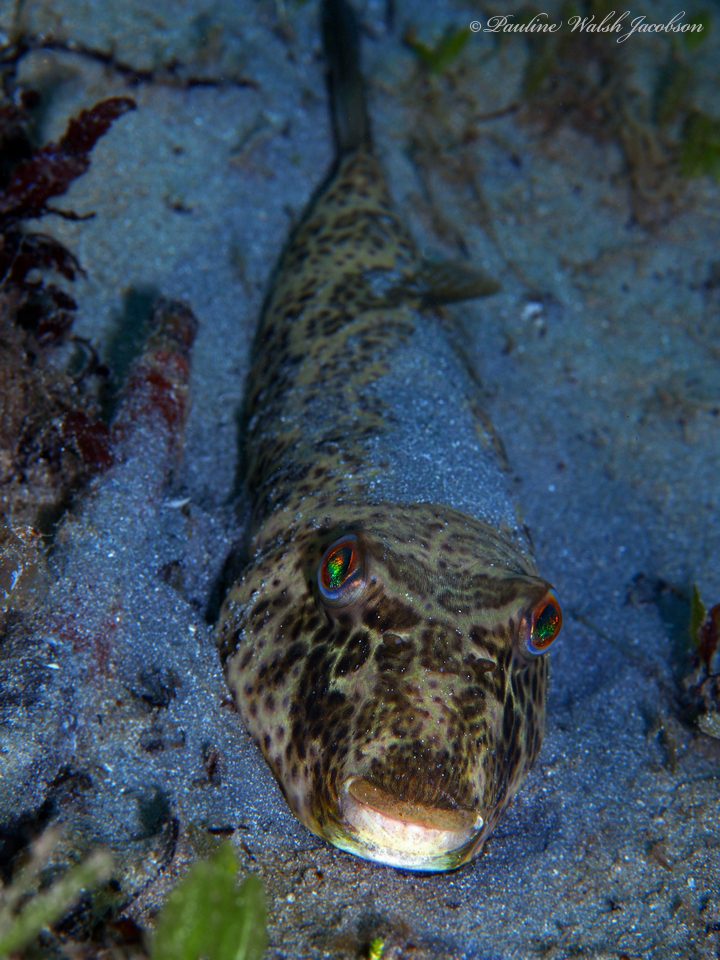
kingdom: Animalia
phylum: Chordata
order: Tetraodontiformes
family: Tetraodontidae
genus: Sphoeroides
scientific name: Sphoeroides testudineus
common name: Checkered puffer
